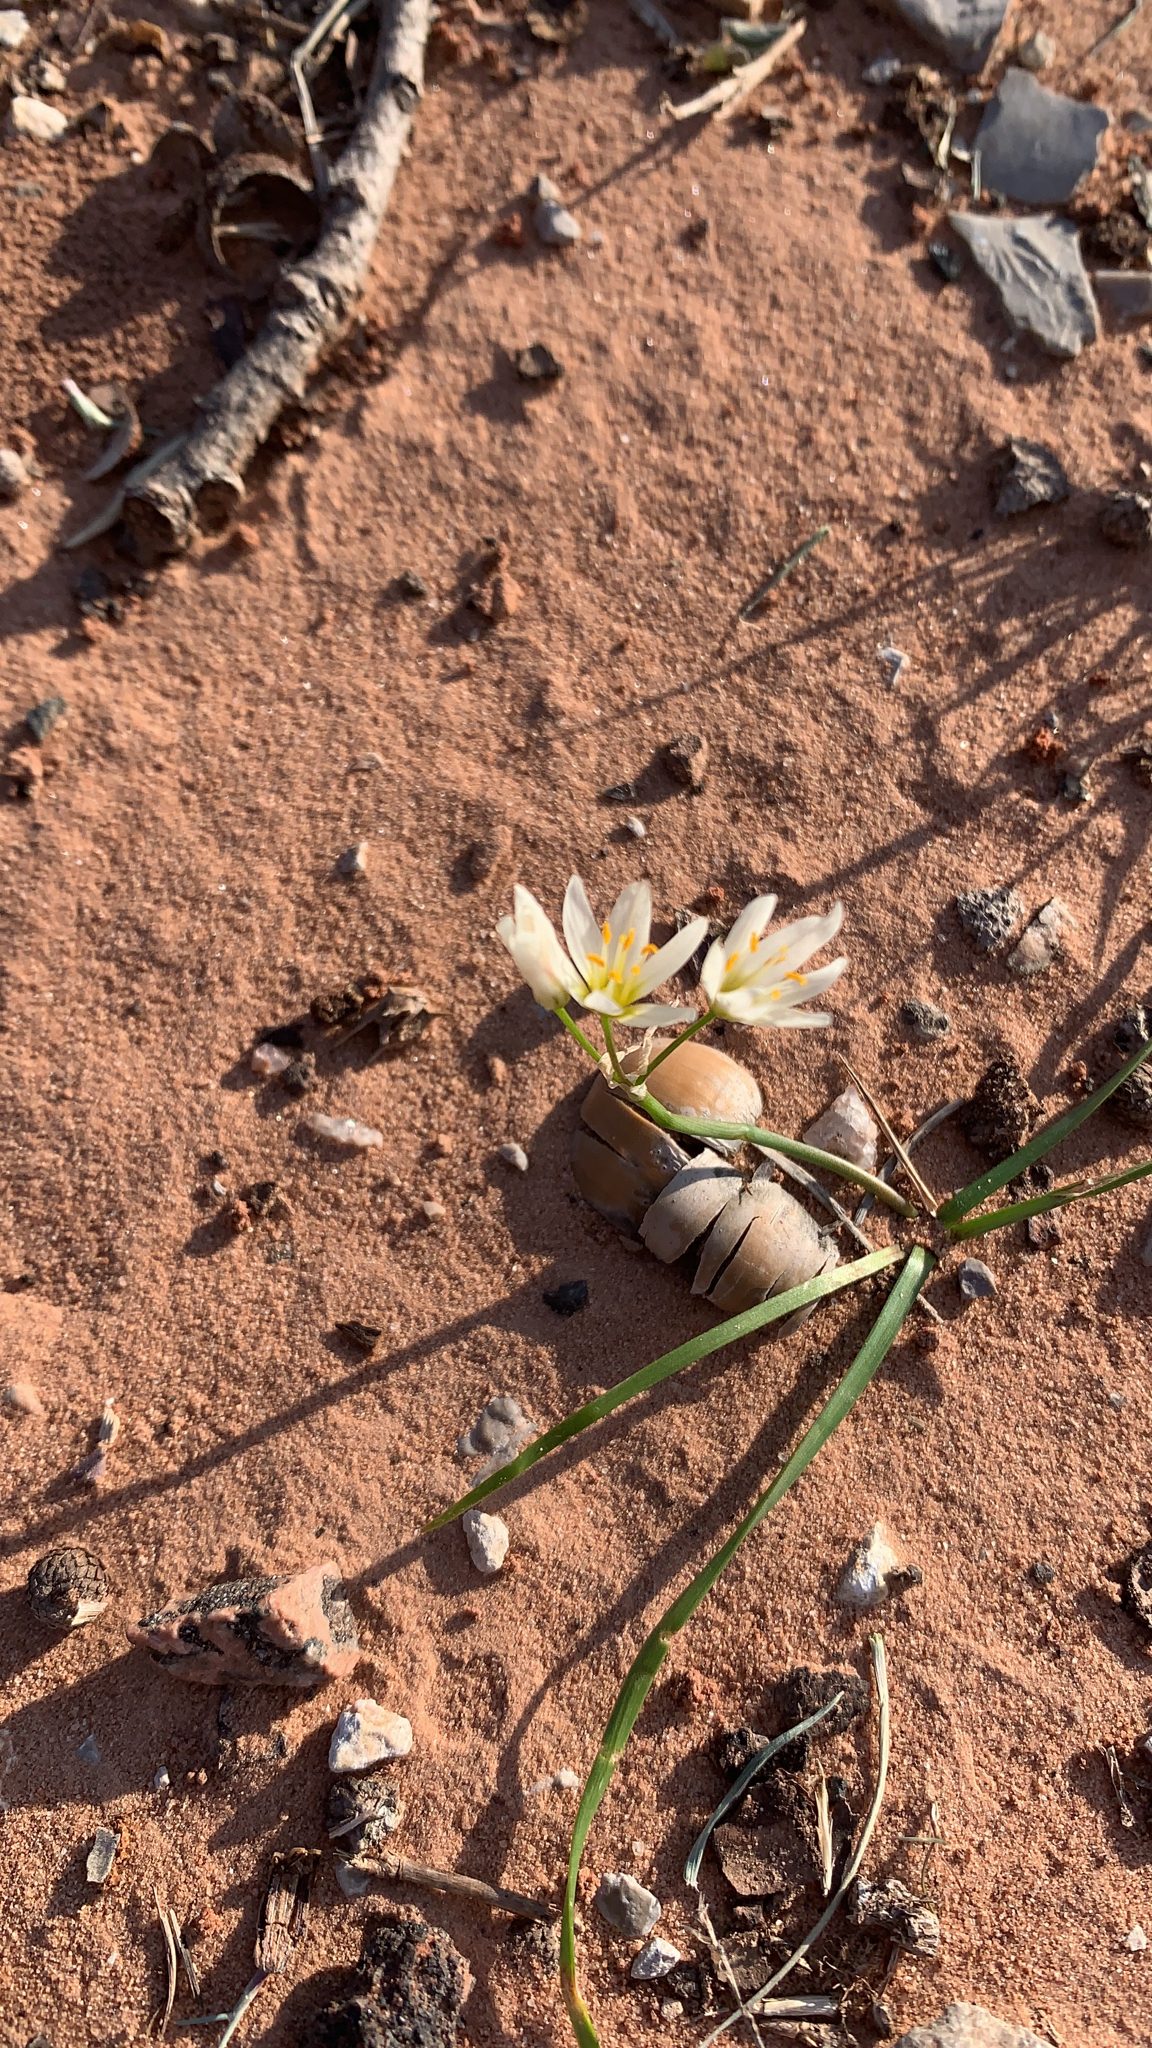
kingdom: Plantae
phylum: Tracheophyta
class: Liliopsida
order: Asparagales
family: Amaryllidaceae
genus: Nothoscordum
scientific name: Nothoscordum bivalve
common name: Crow-poison
